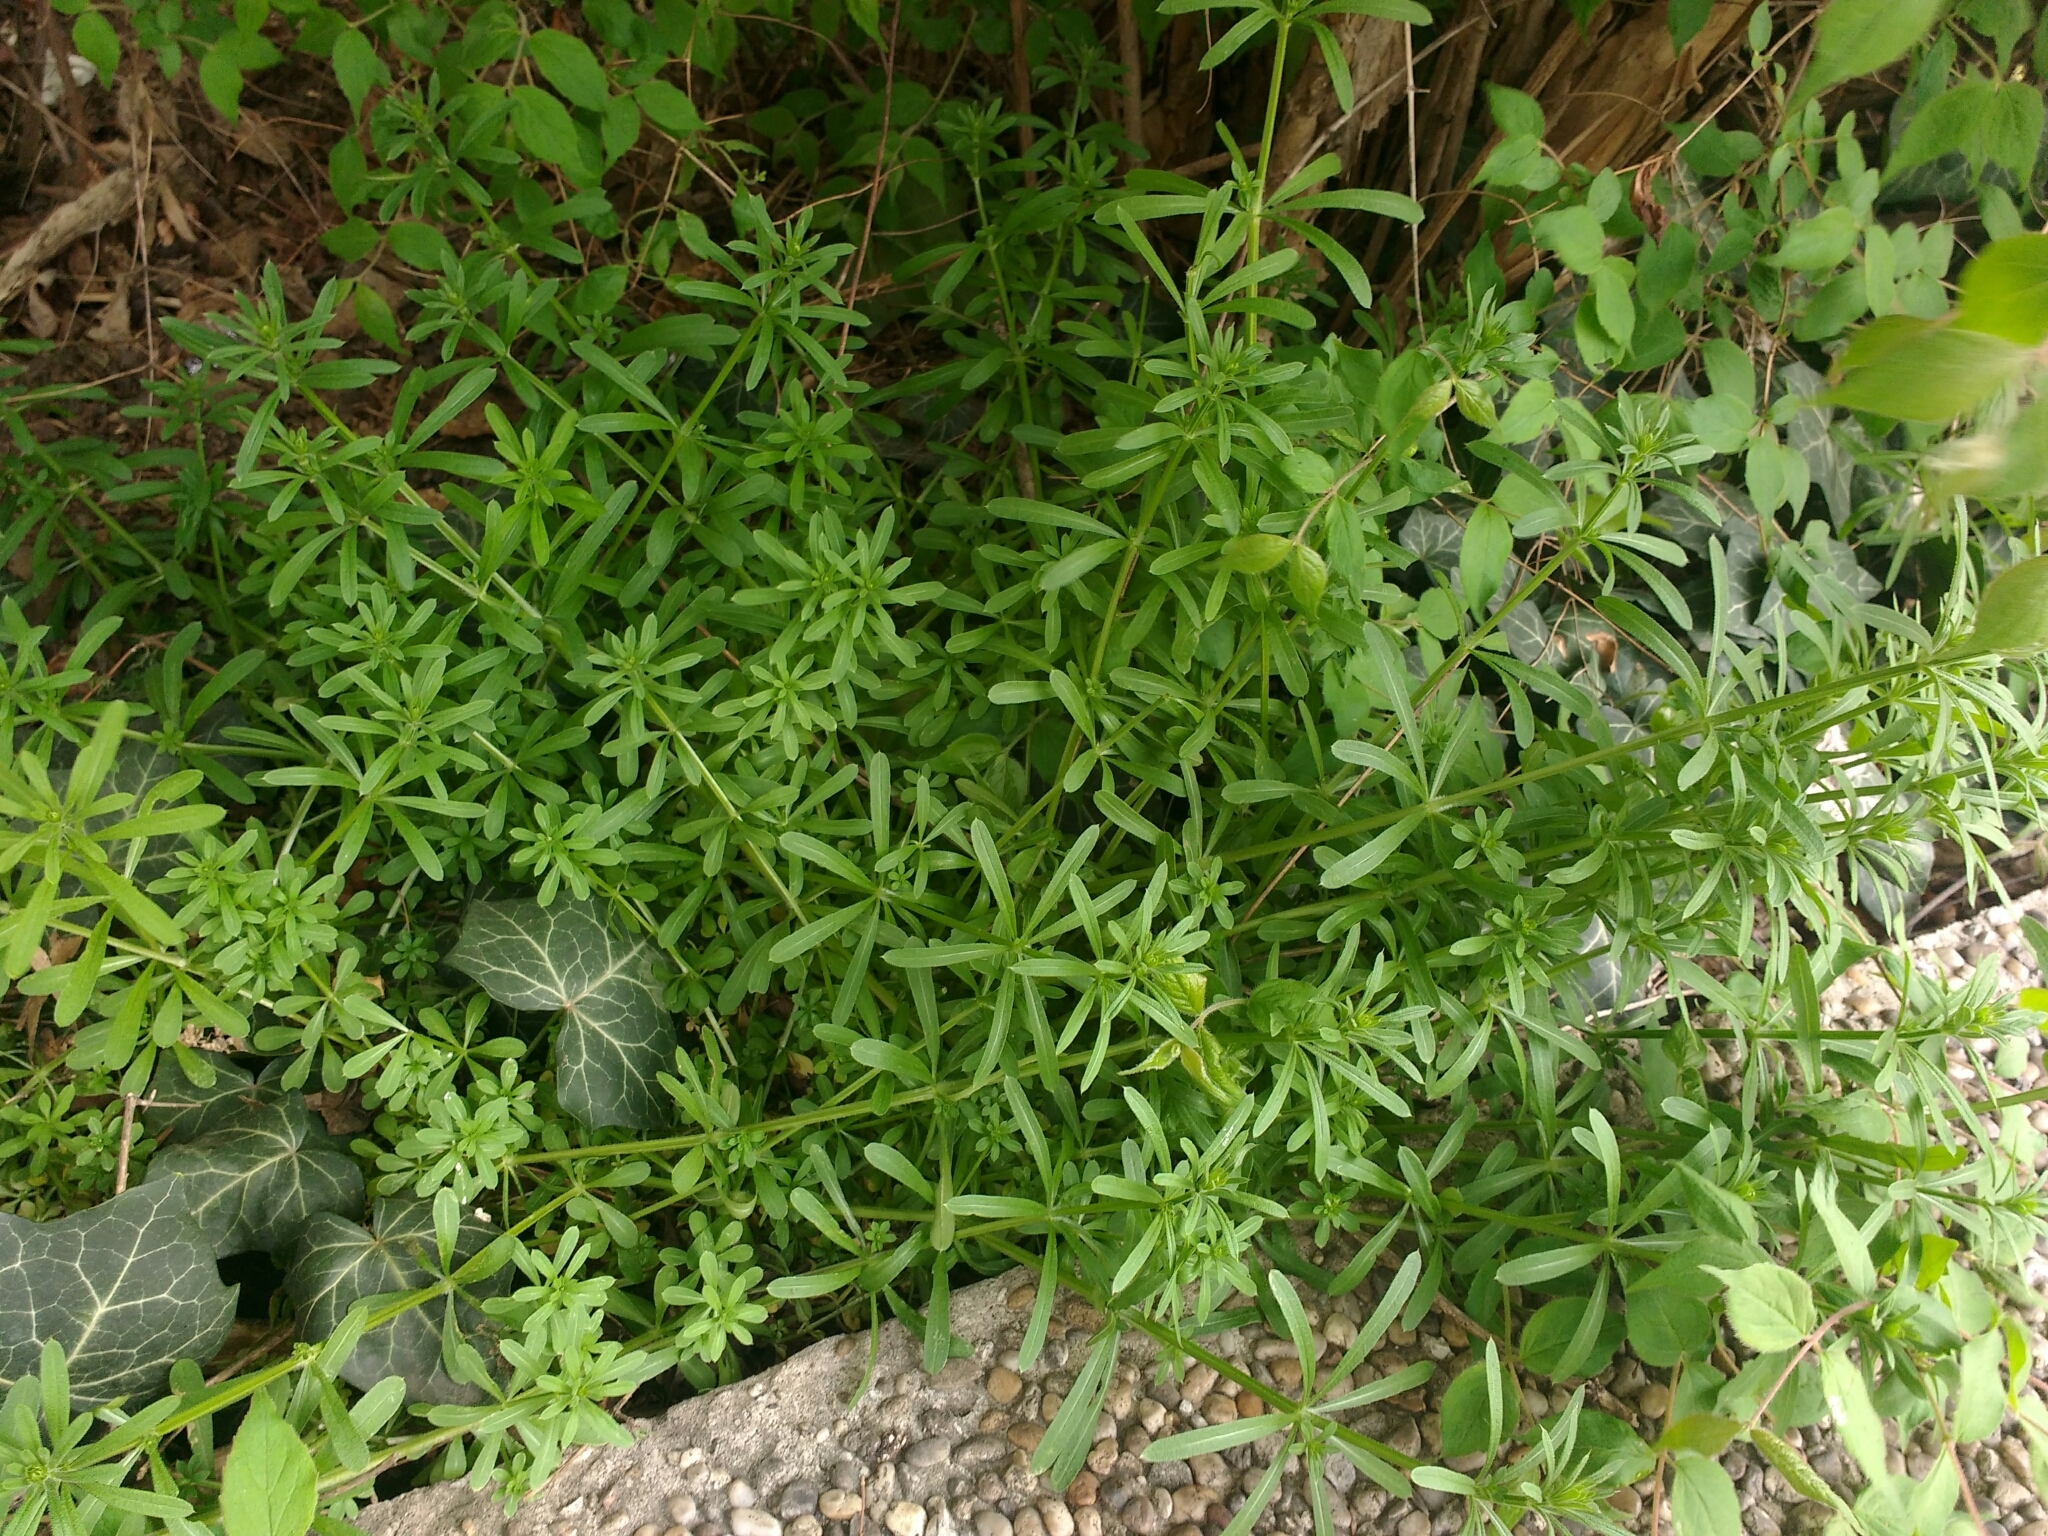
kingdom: Plantae
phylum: Tracheophyta
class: Magnoliopsida
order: Gentianales
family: Rubiaceae
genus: Galium
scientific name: Galium aparine
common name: Cleavers
